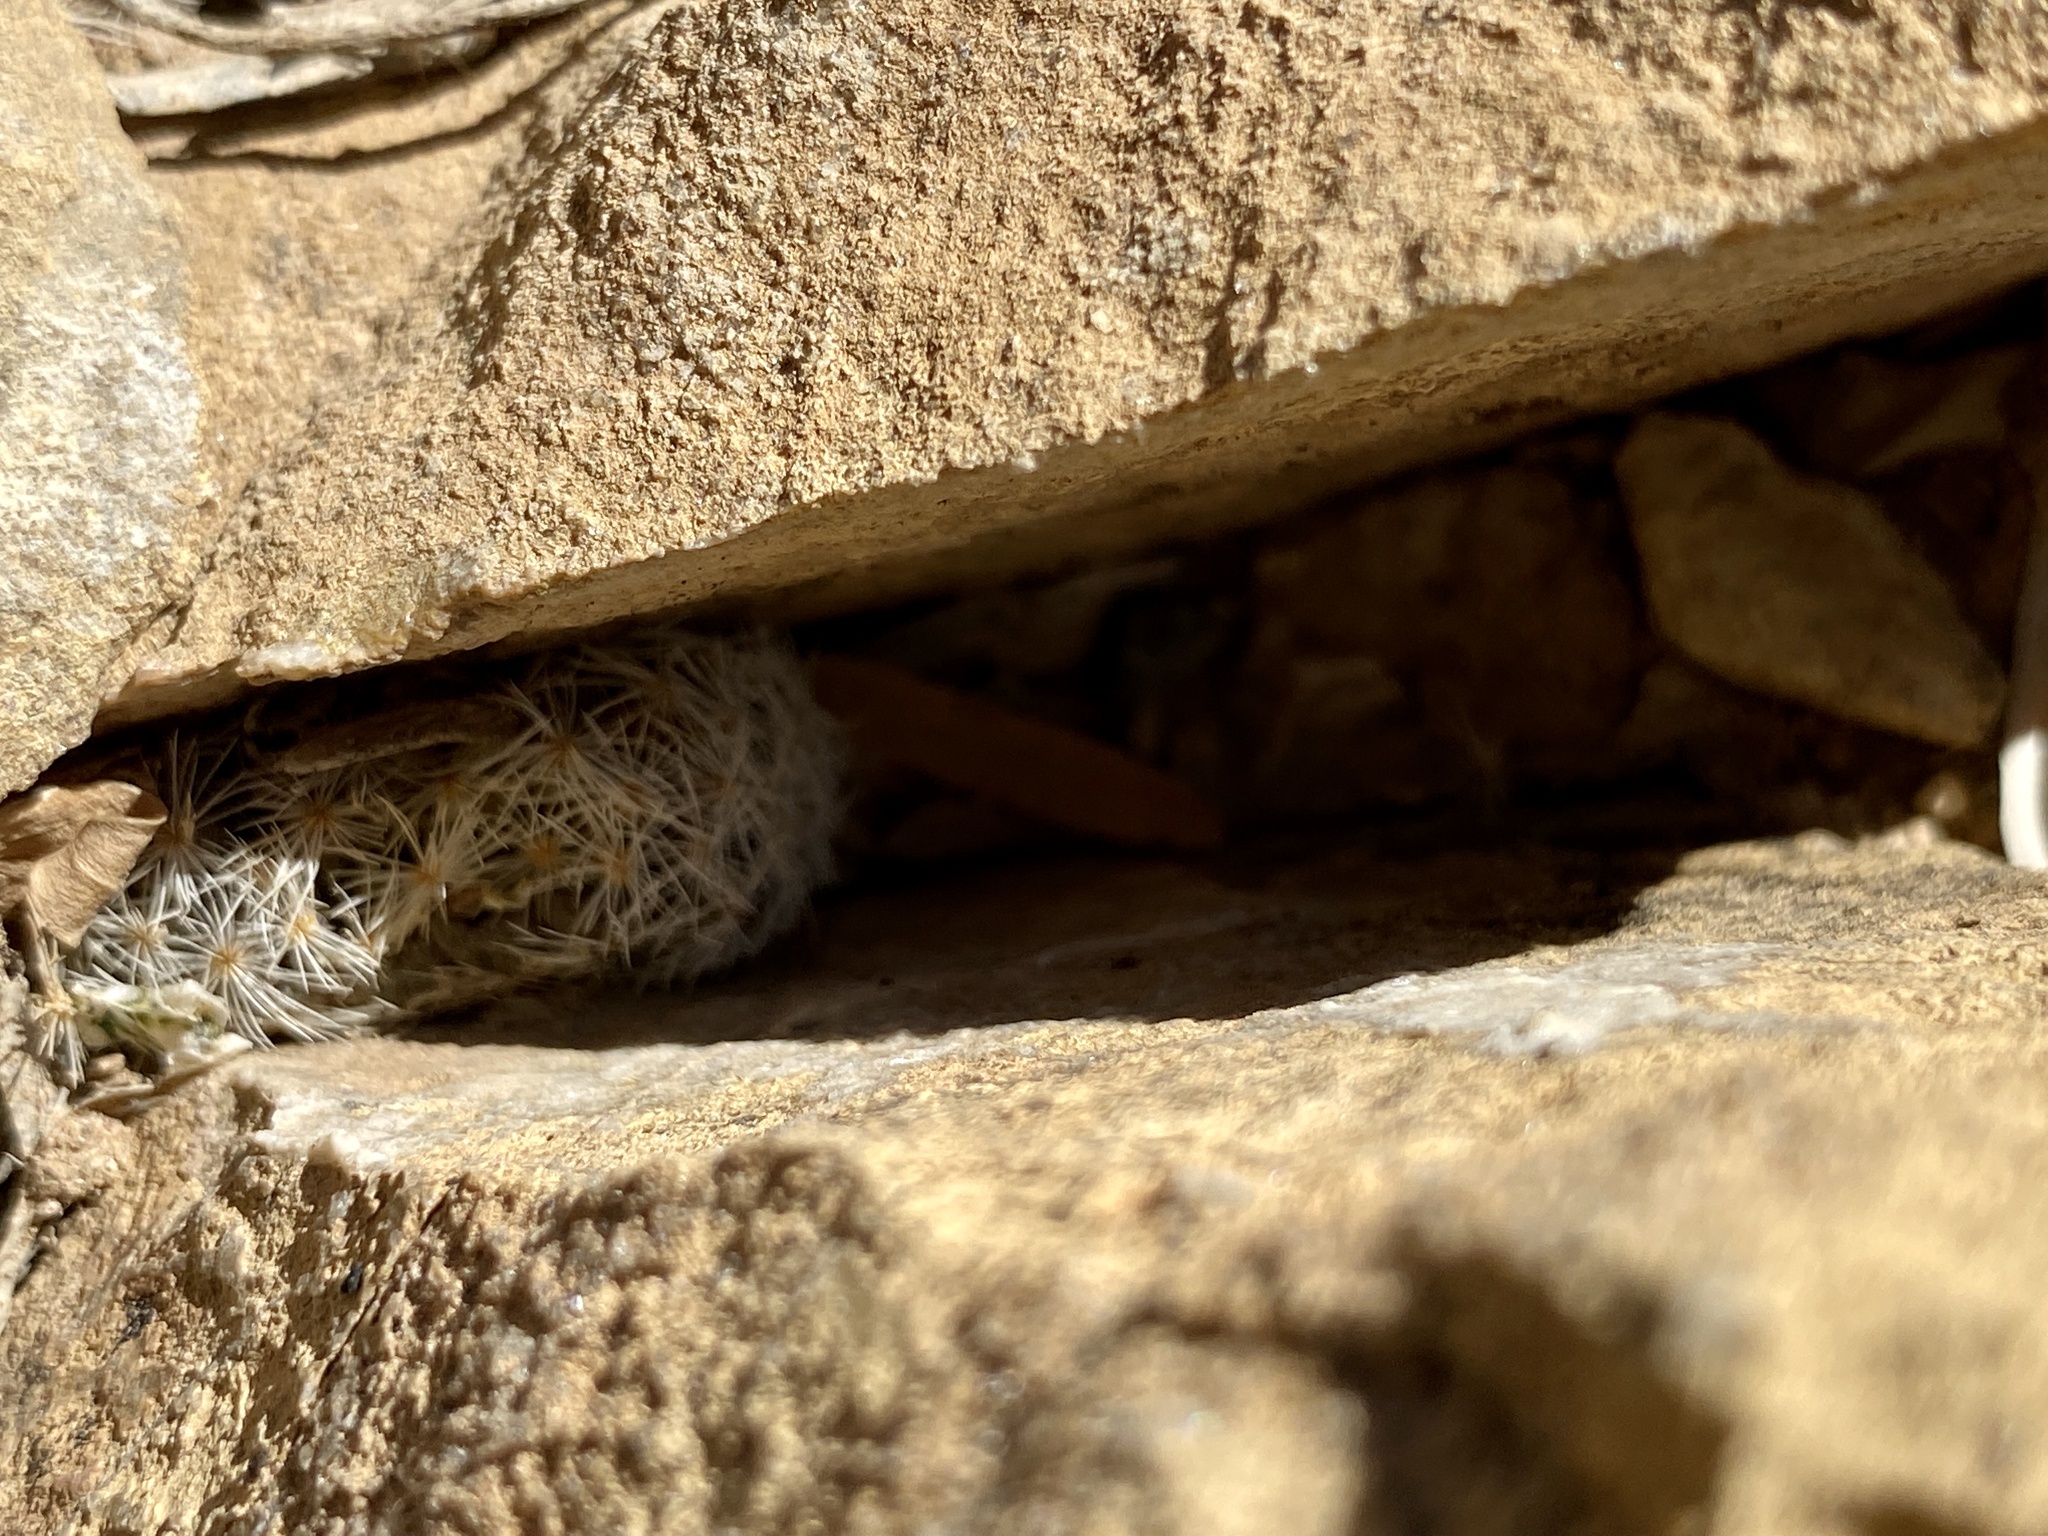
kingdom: Plantae
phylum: Tracheophyta
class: Magnoliopsida
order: Caryophyllales
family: Cactaceae
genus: Mammillaria
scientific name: Mammillaria lasiacantha
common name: Lace-spine nipple cactus
